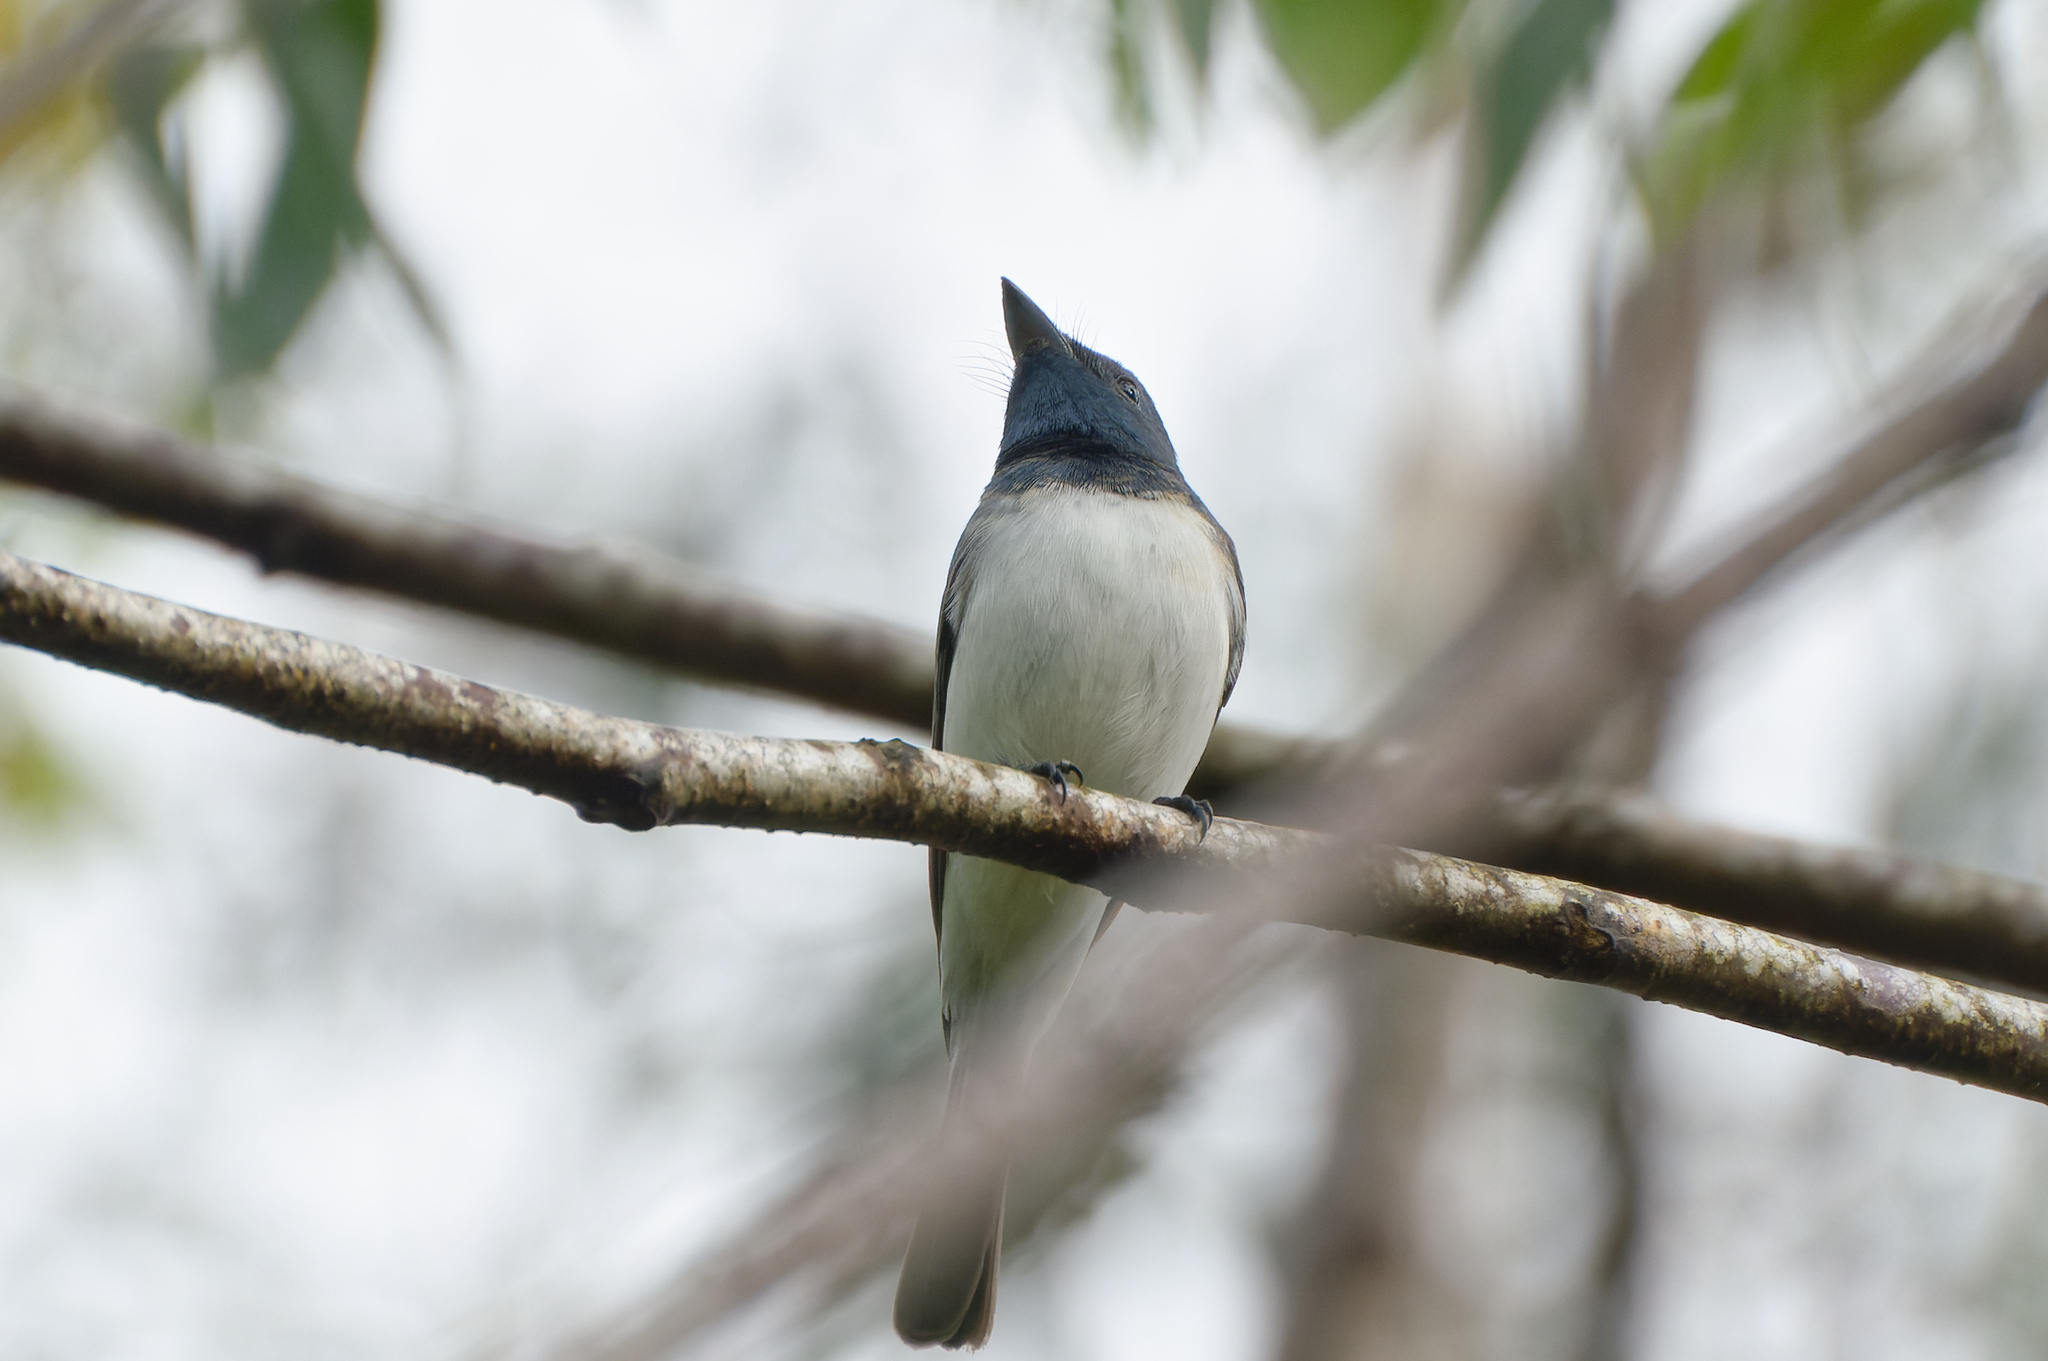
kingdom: Animalia
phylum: Chordata
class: Aves
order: Passeriformes
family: Monarchidae
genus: Myiagra
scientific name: Myiagra rubecula
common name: Leaden flycatcher
